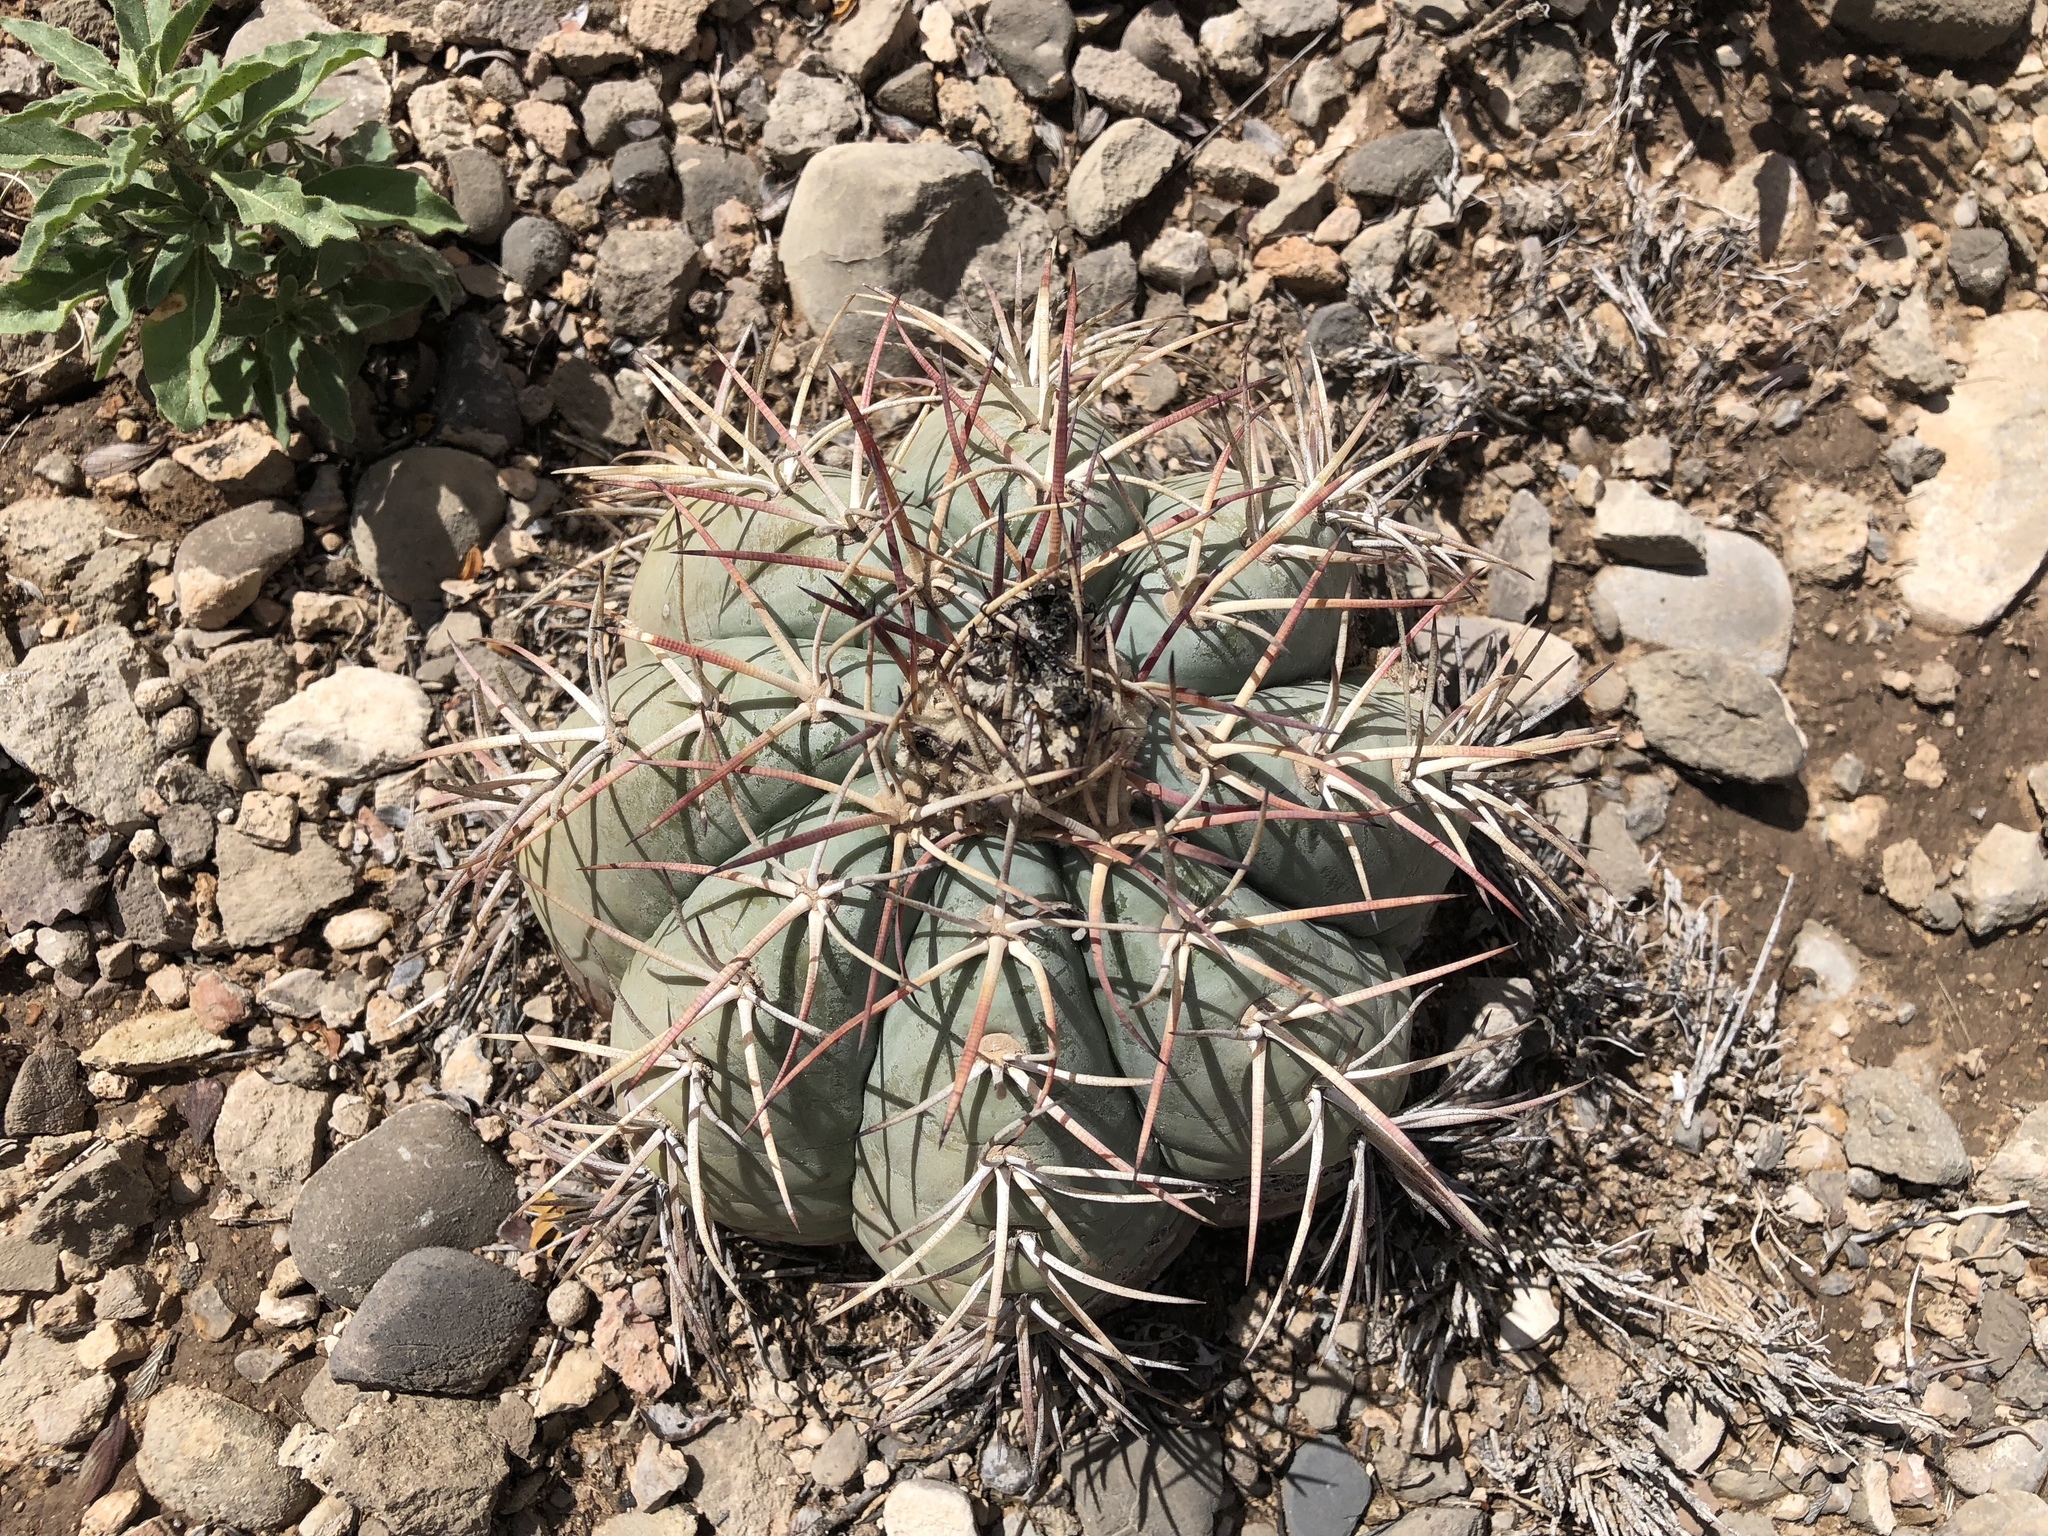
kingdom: Plantae
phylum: Tracheophyta
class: Magnoliopsida
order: Caryophyllales
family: Cactaceae
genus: Echinocactus
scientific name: Echinocactus horizonthalonius
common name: Devilshead
